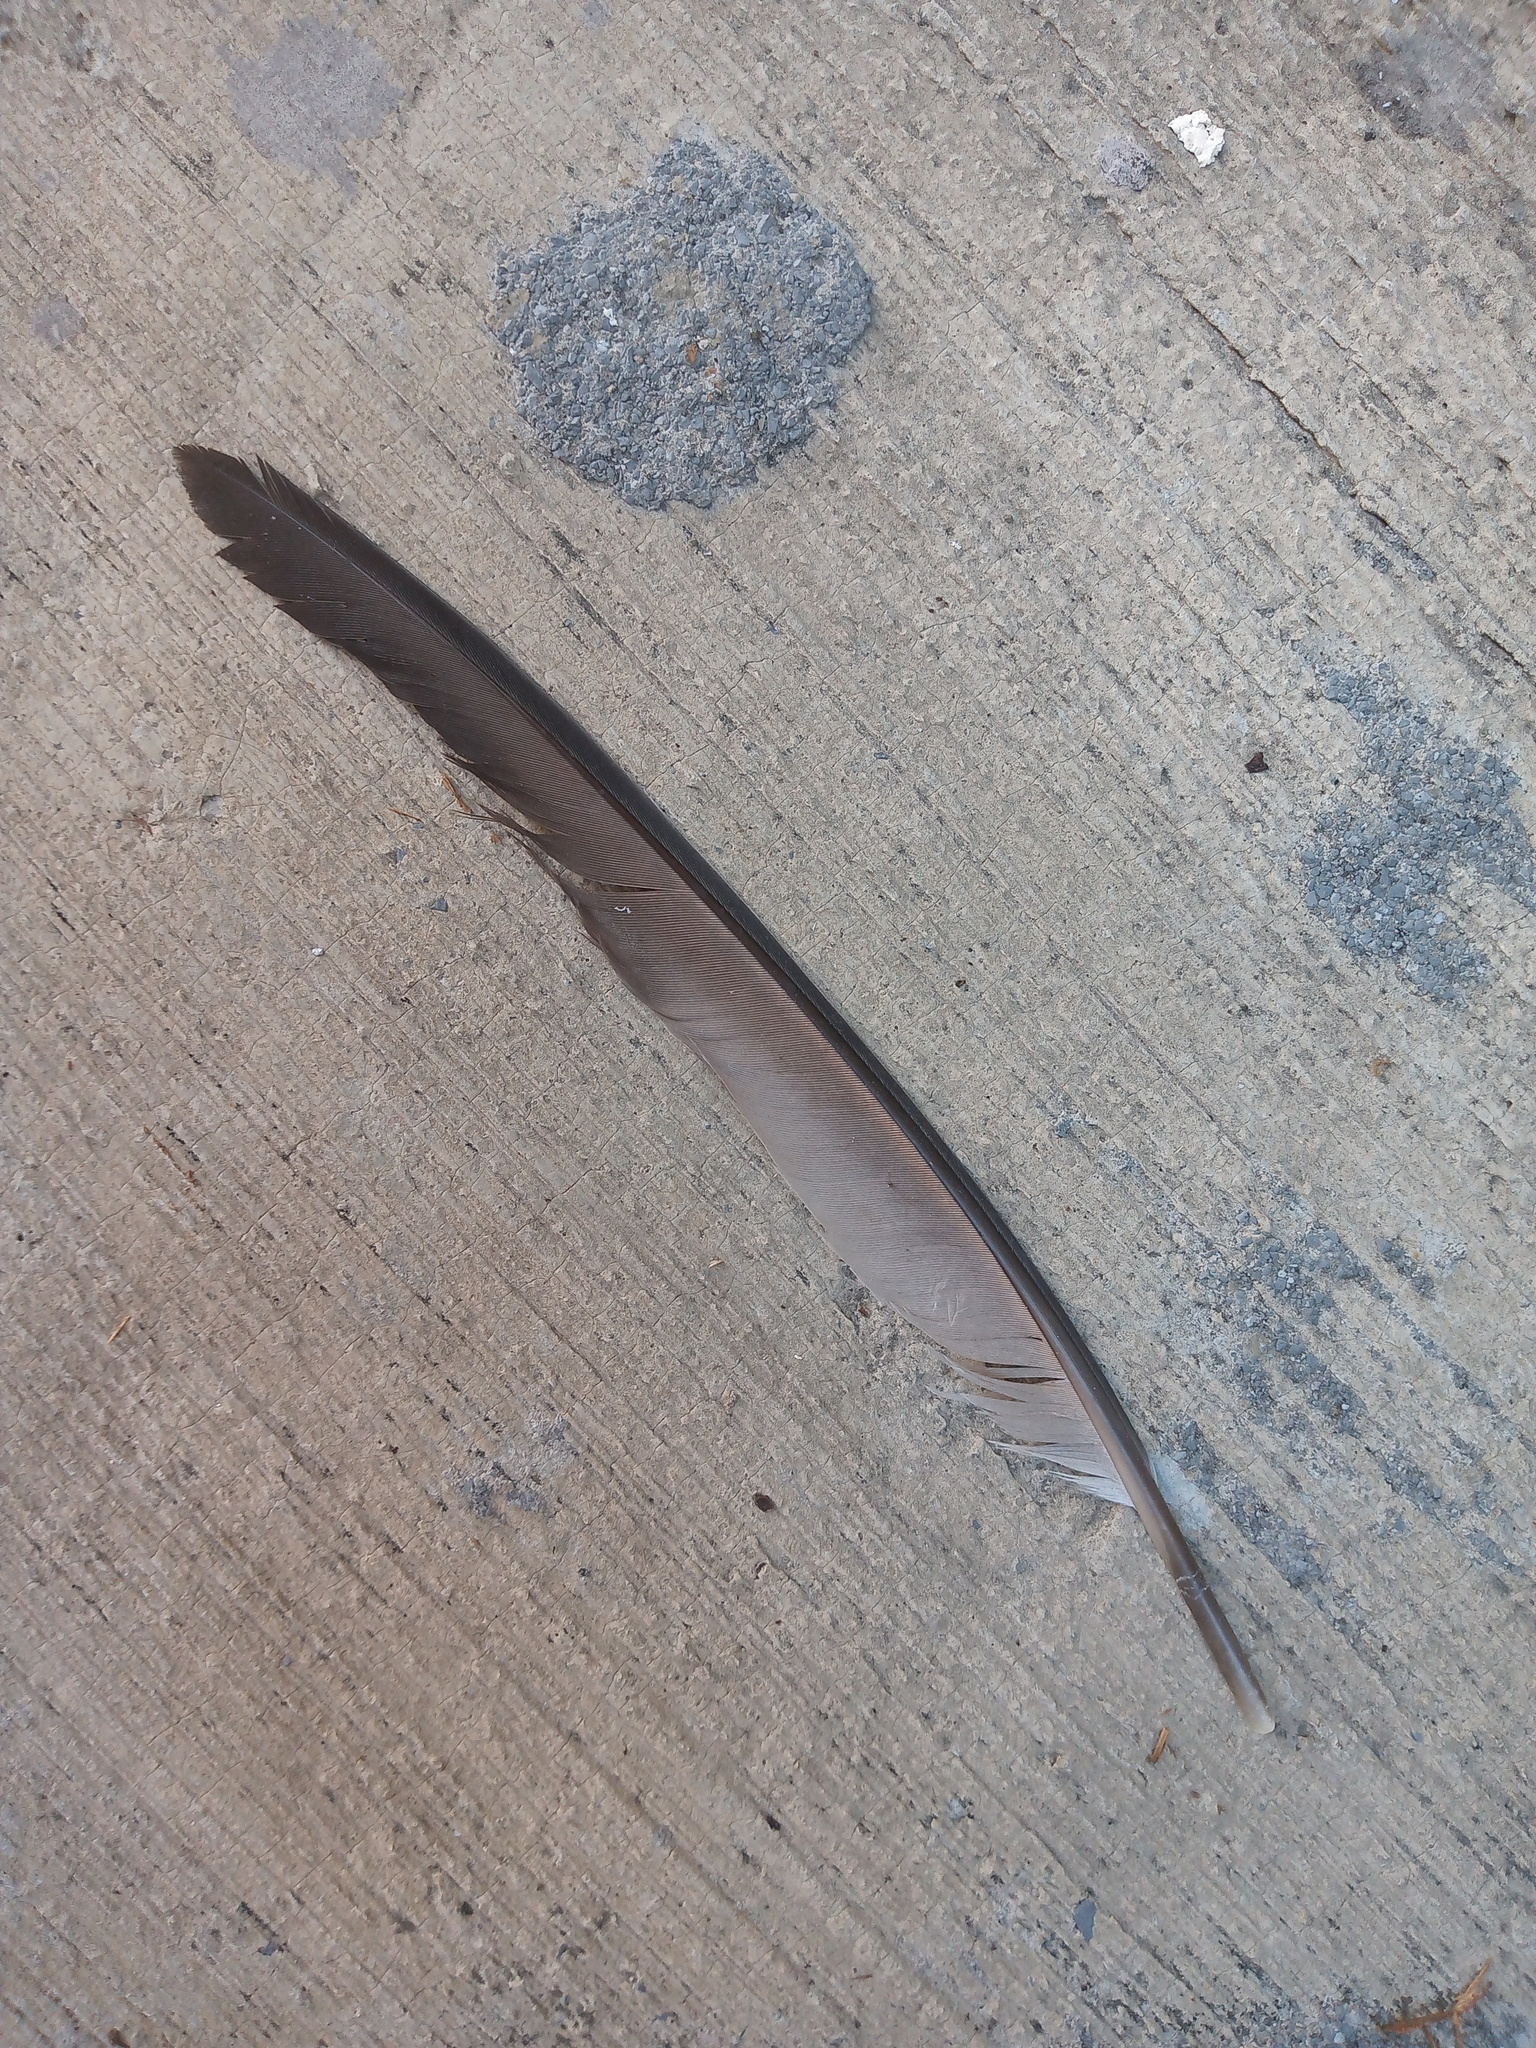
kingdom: Animalia
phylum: Chordata
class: Aves
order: Columbiformes
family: Columbidae
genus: Columba
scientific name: Columba livia
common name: Rock pigeon
